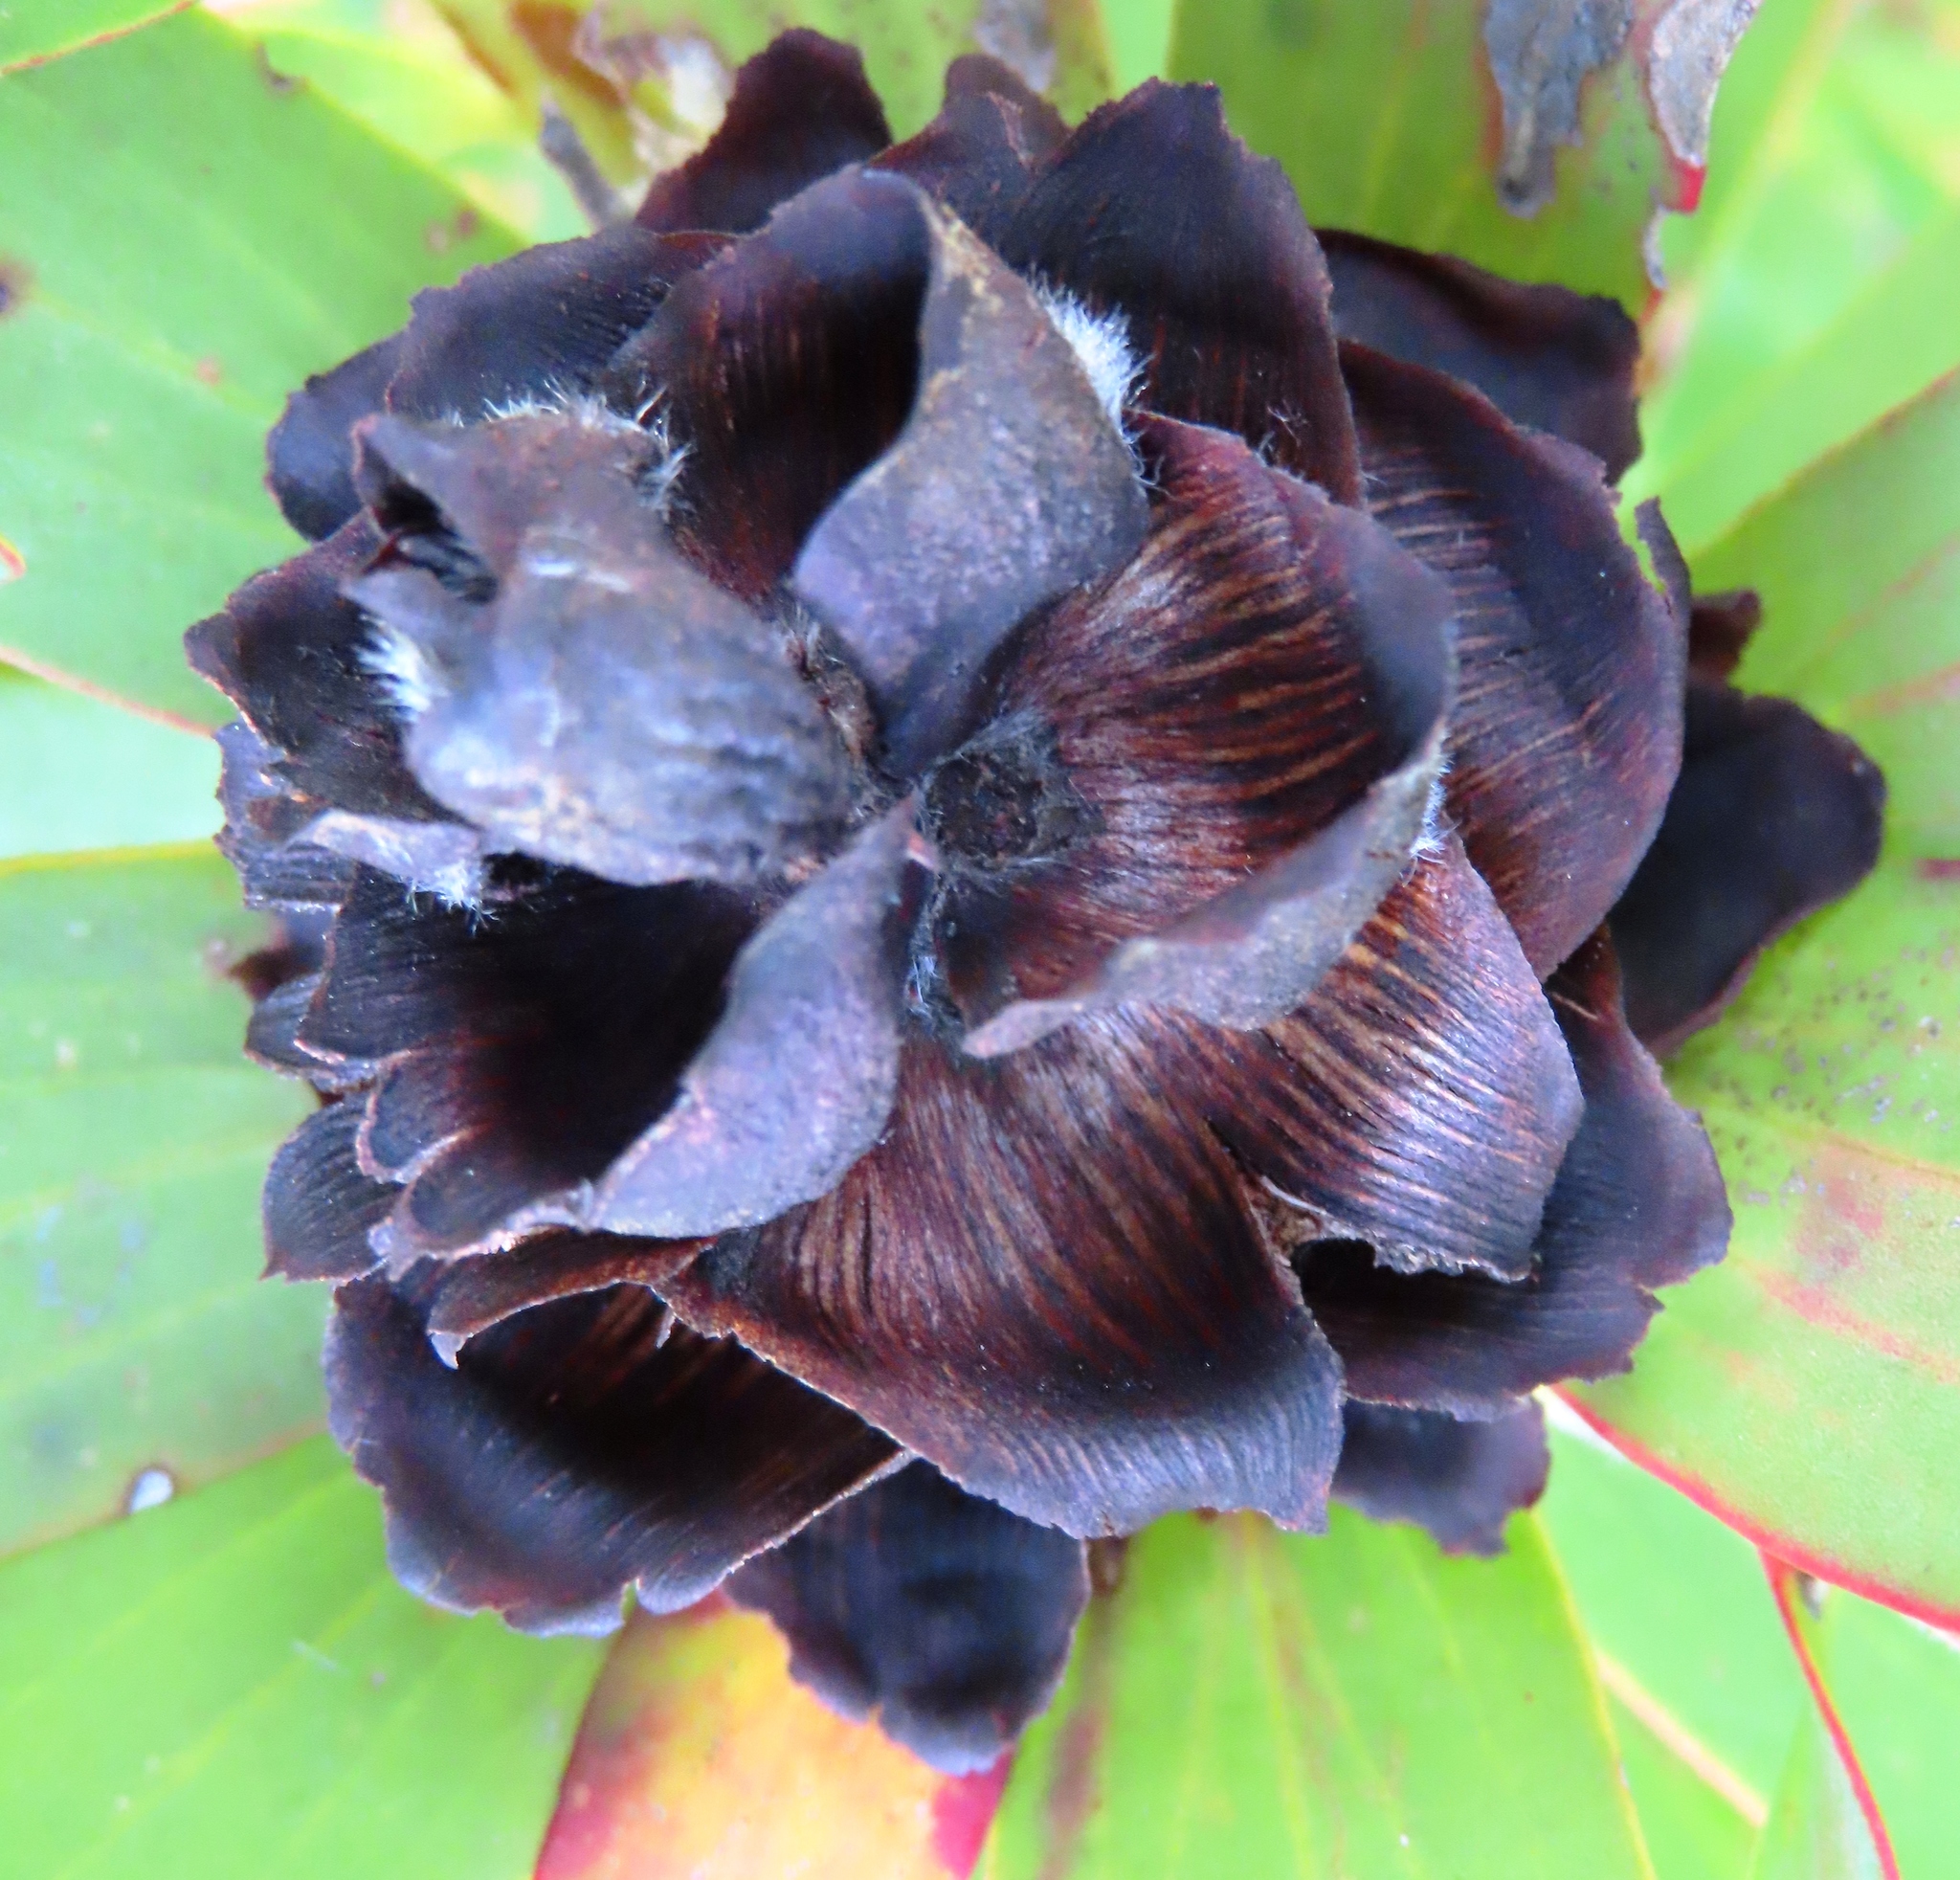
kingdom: Plantae
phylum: Tracheophyta
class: Magnoliopsida
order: Proteales
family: Proteaceae
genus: Leucadendron
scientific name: Leucadendron sessile
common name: Western sunbush
